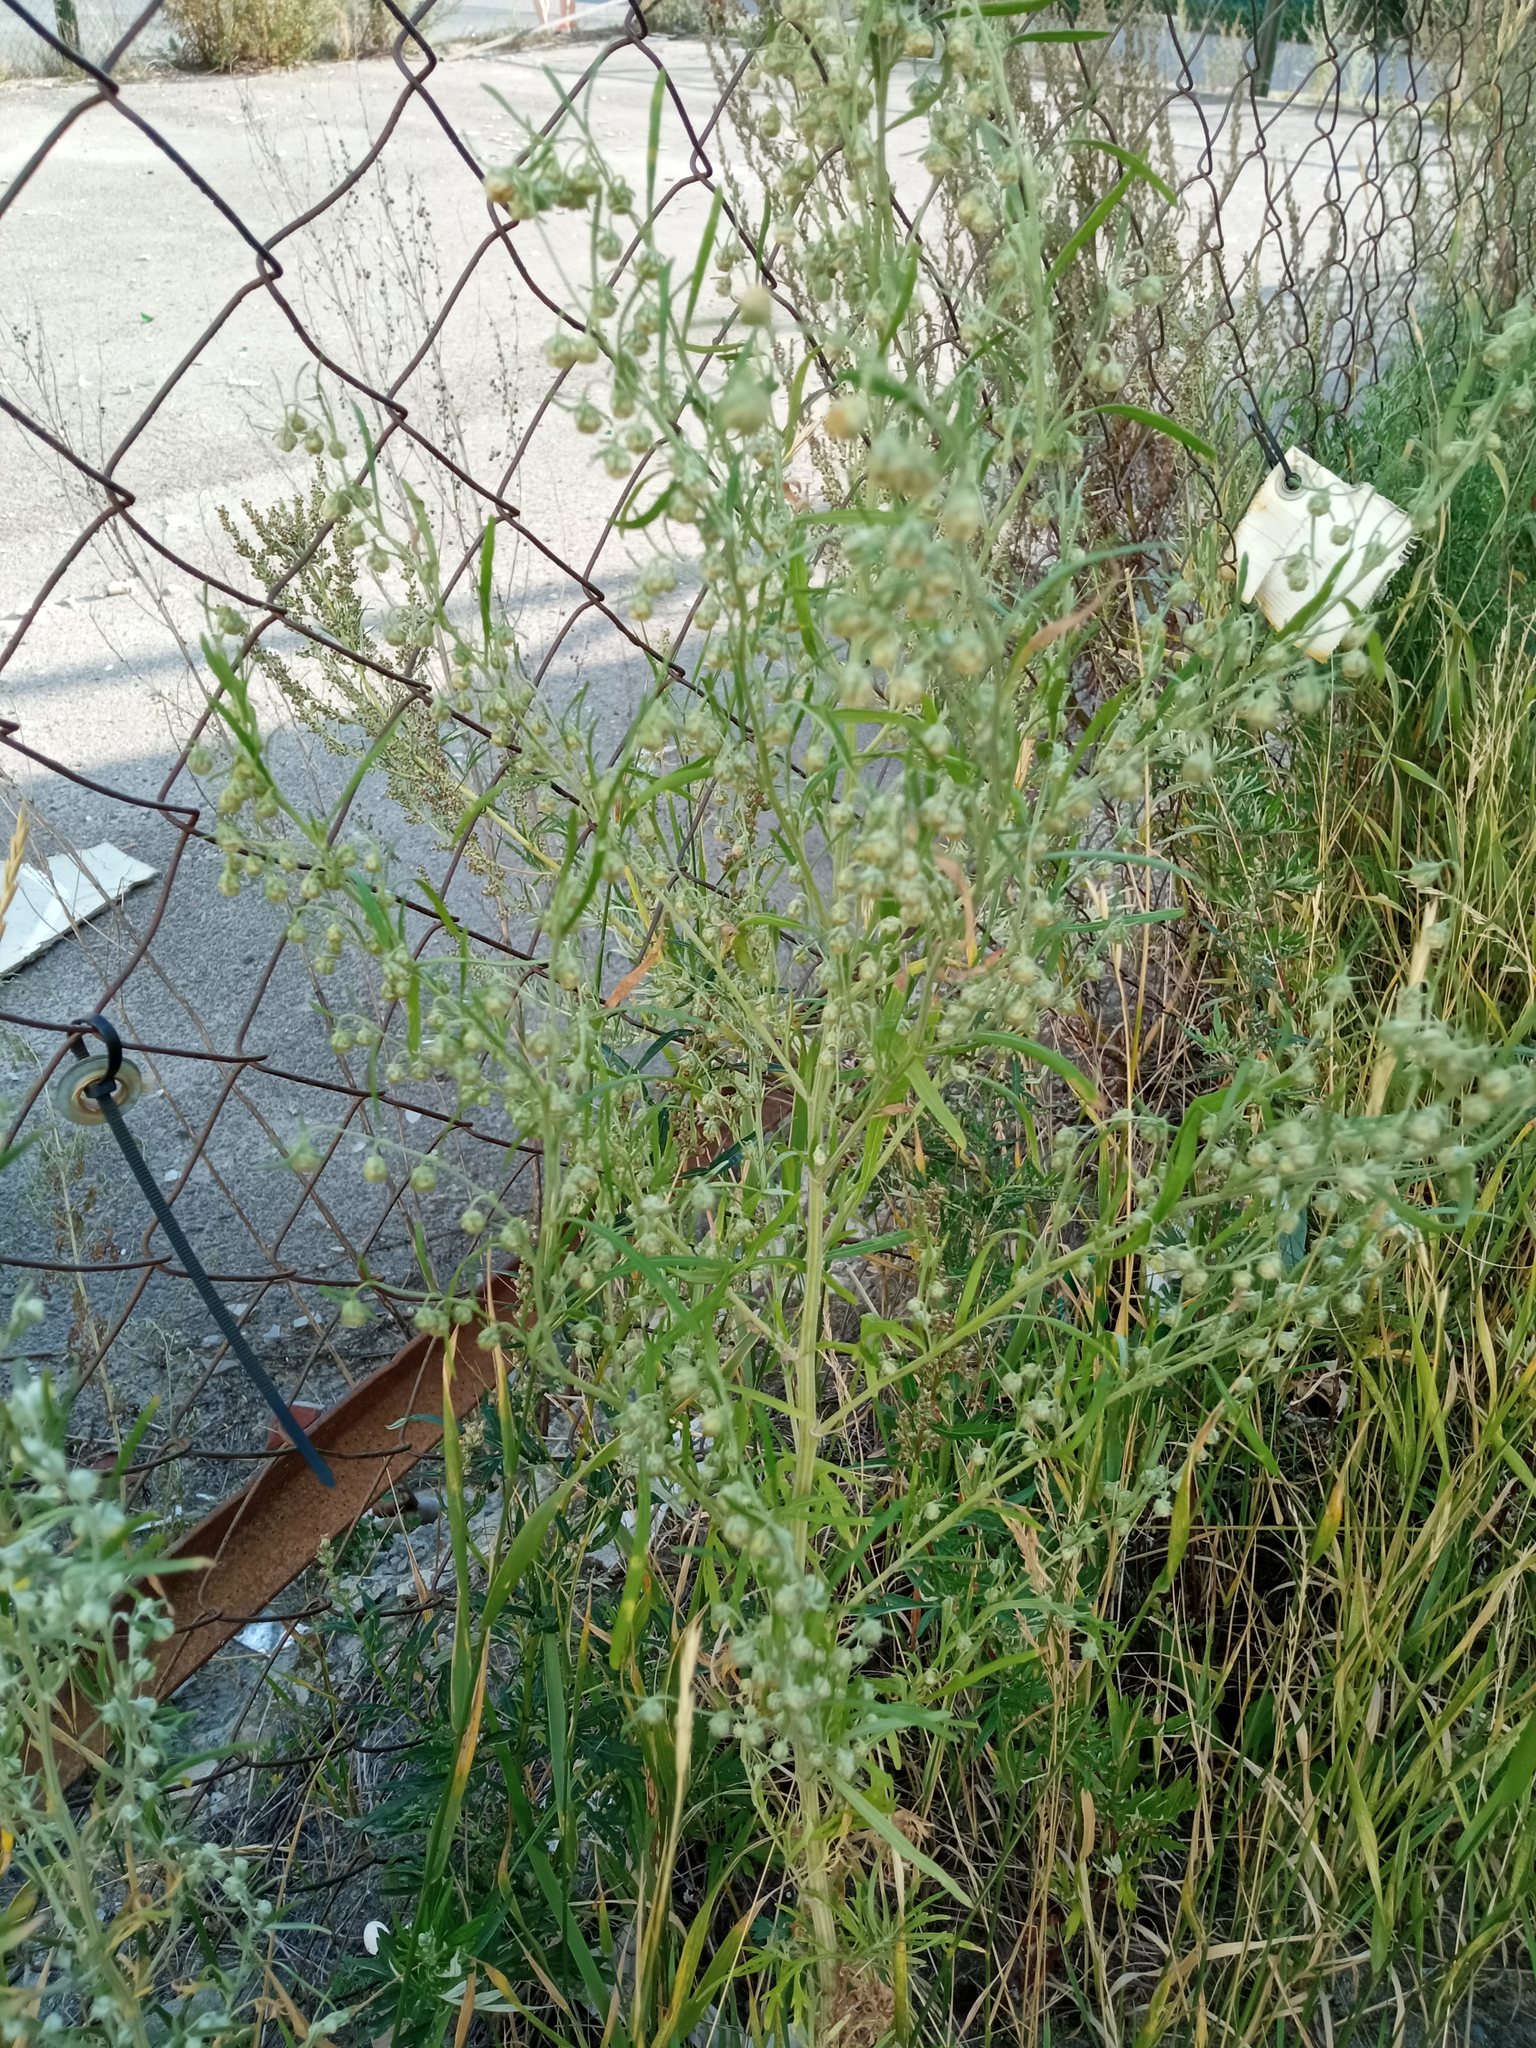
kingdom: Plantae
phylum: Tracheophyta
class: Magnoliopsida
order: Asterales
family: Asteraceae
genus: Artemisia
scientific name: Artemisia sieversiana
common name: Sieversian wormwood
